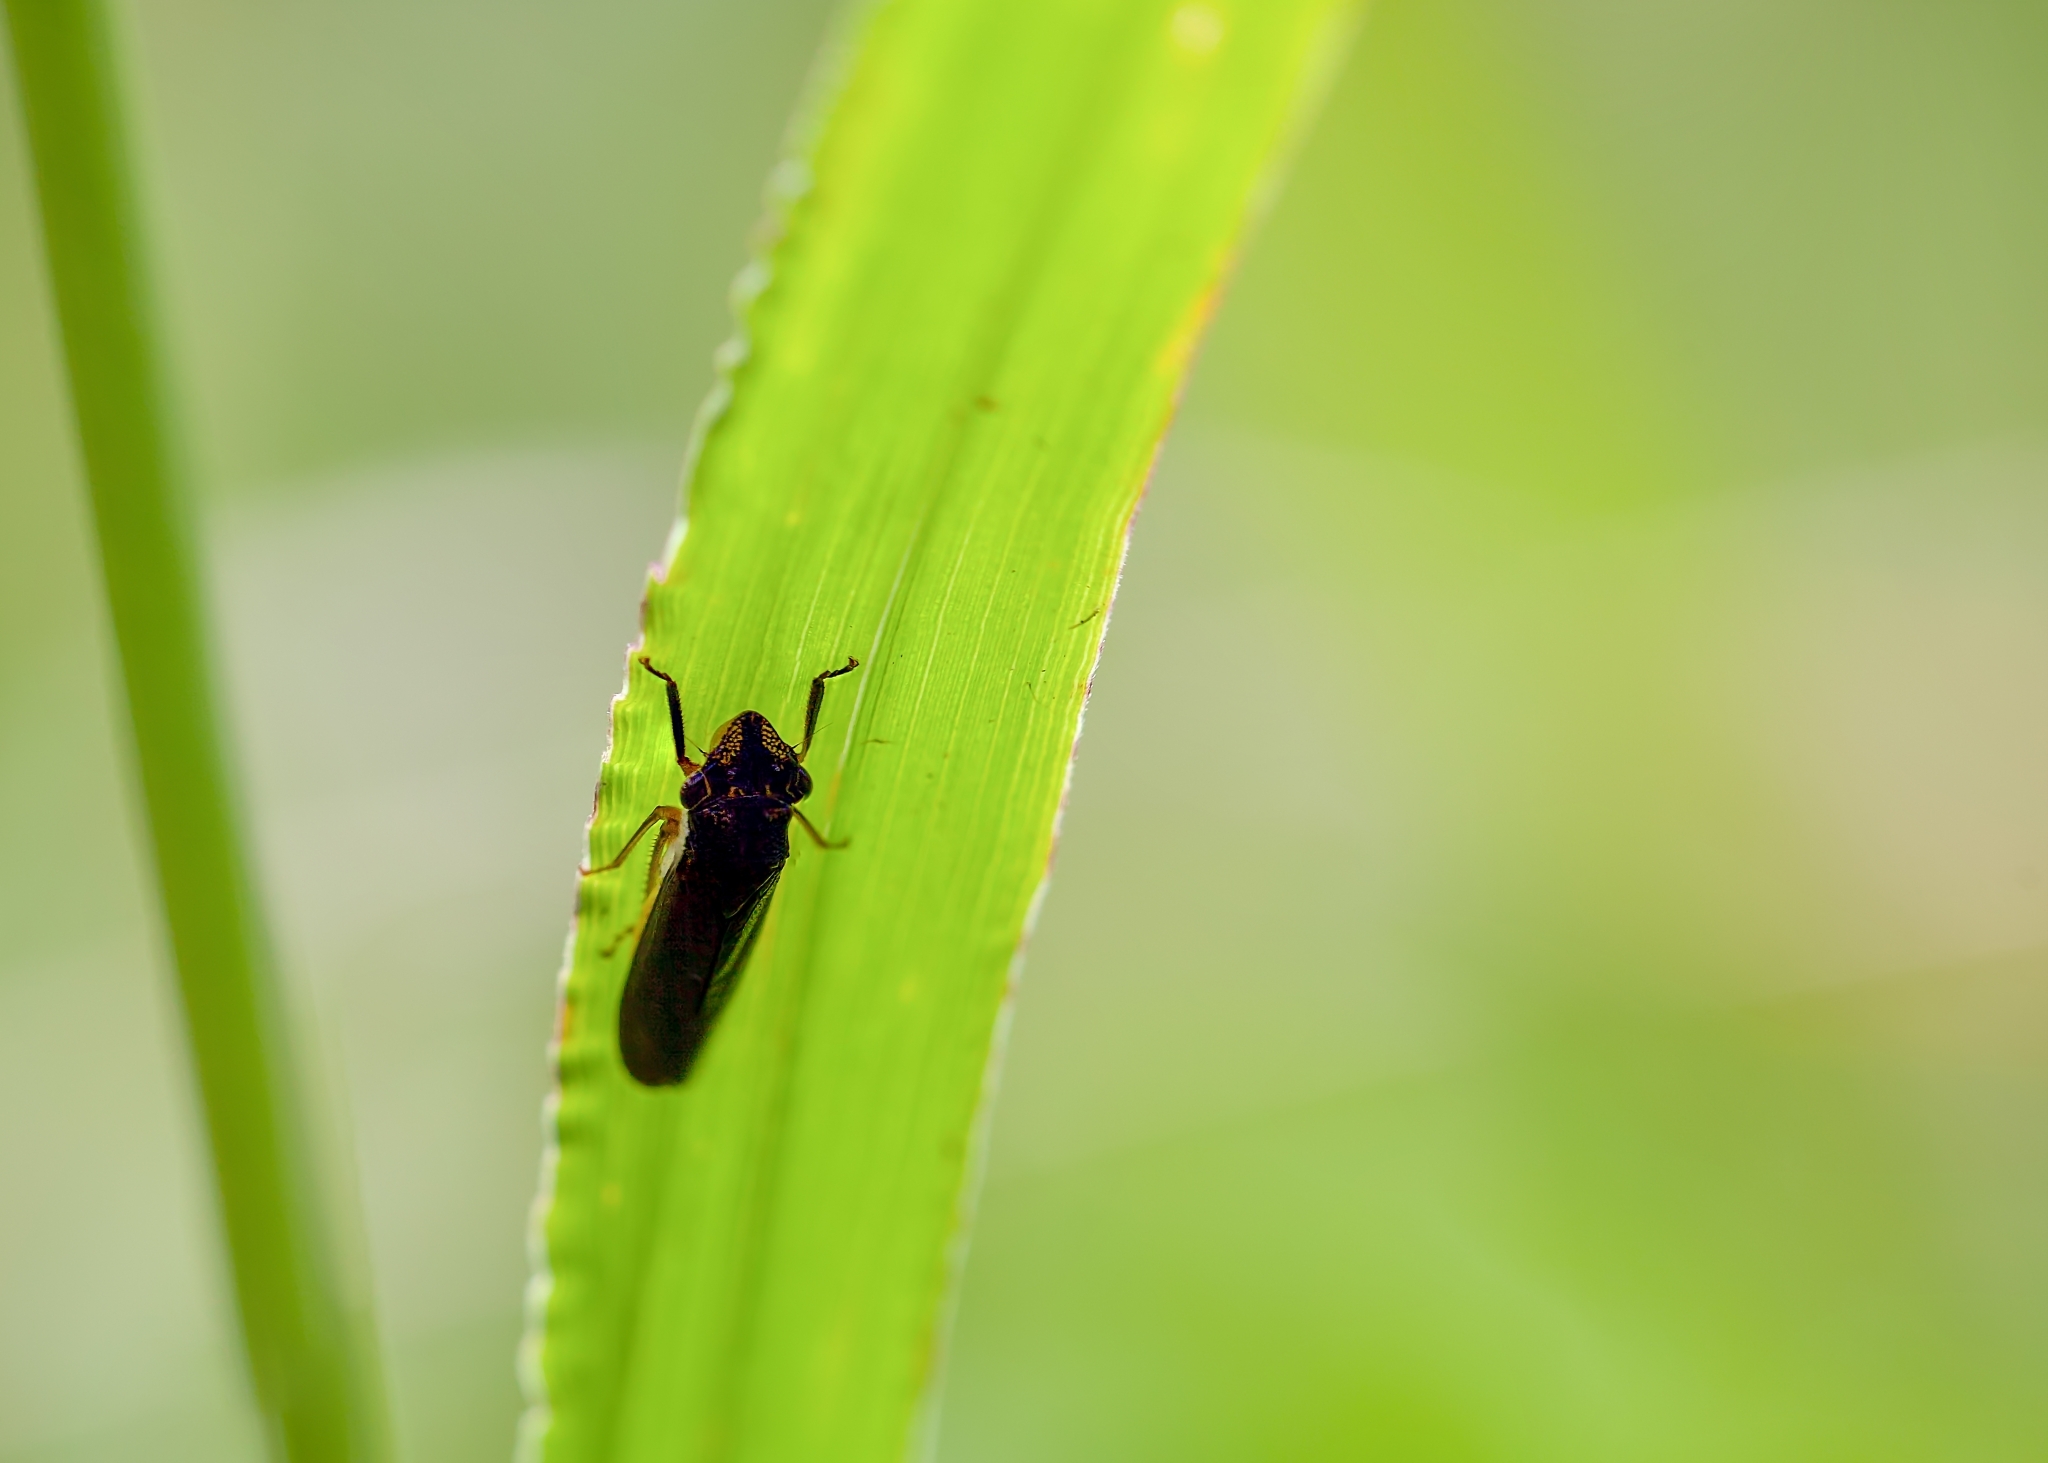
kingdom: Animalia
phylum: Arthropoda
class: Insecta
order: Hemiptera
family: Cicadellidae
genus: Homalodisca
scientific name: Homalodisca insolita
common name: Johnson grass sharpshooter
